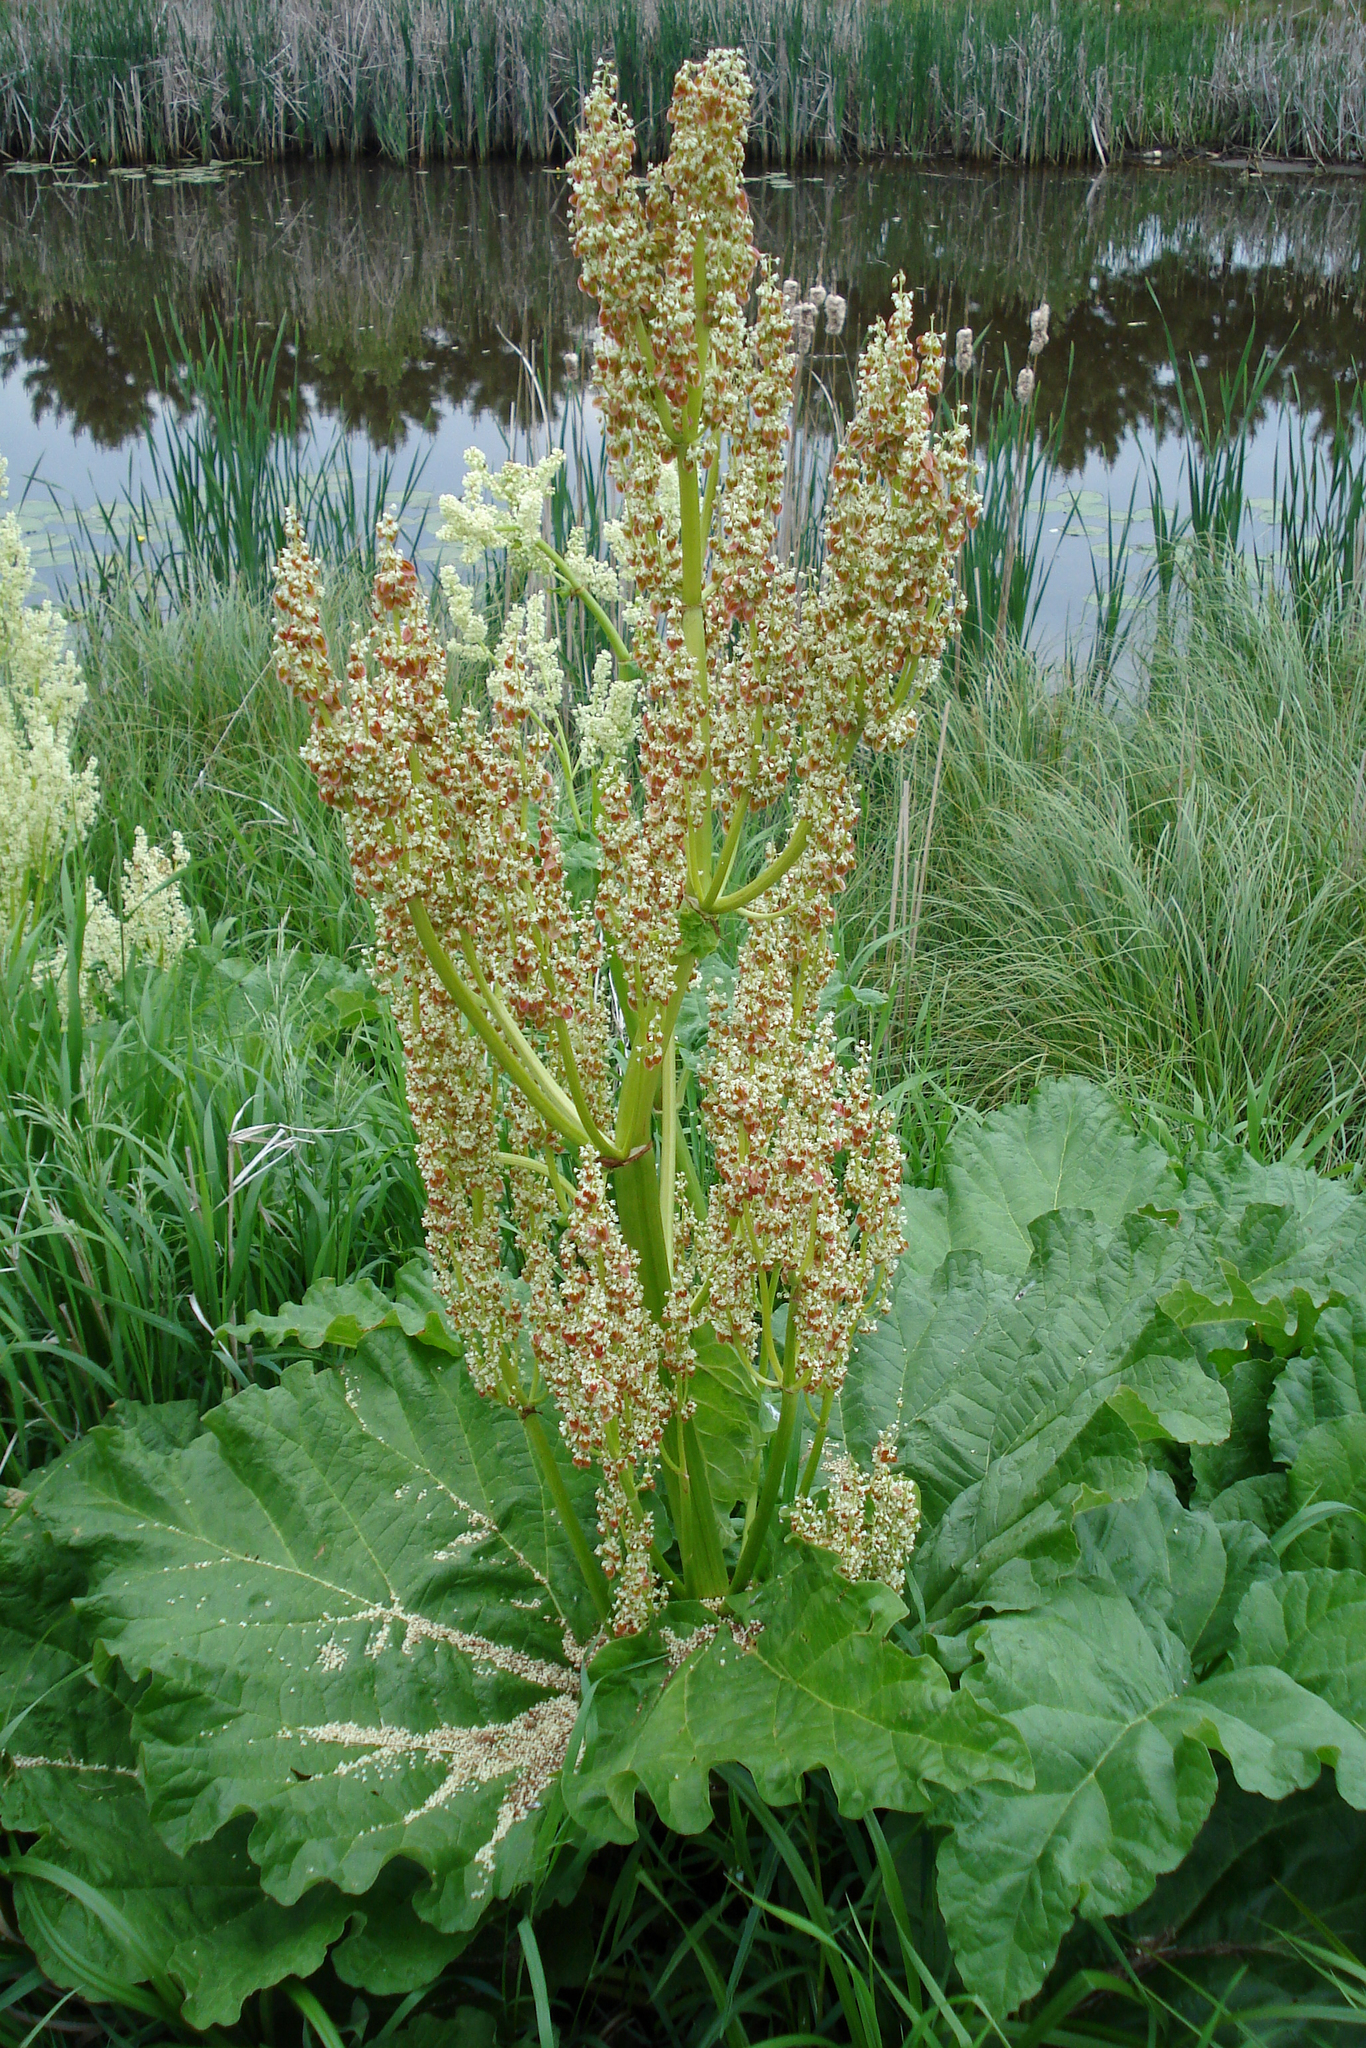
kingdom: Plantae
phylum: Tracheophyta
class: Magnoliopsida
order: Caryophyllales
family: Polygonaceae
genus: Rheum
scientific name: Rheum rhabarbarum
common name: Garden rhubarb
